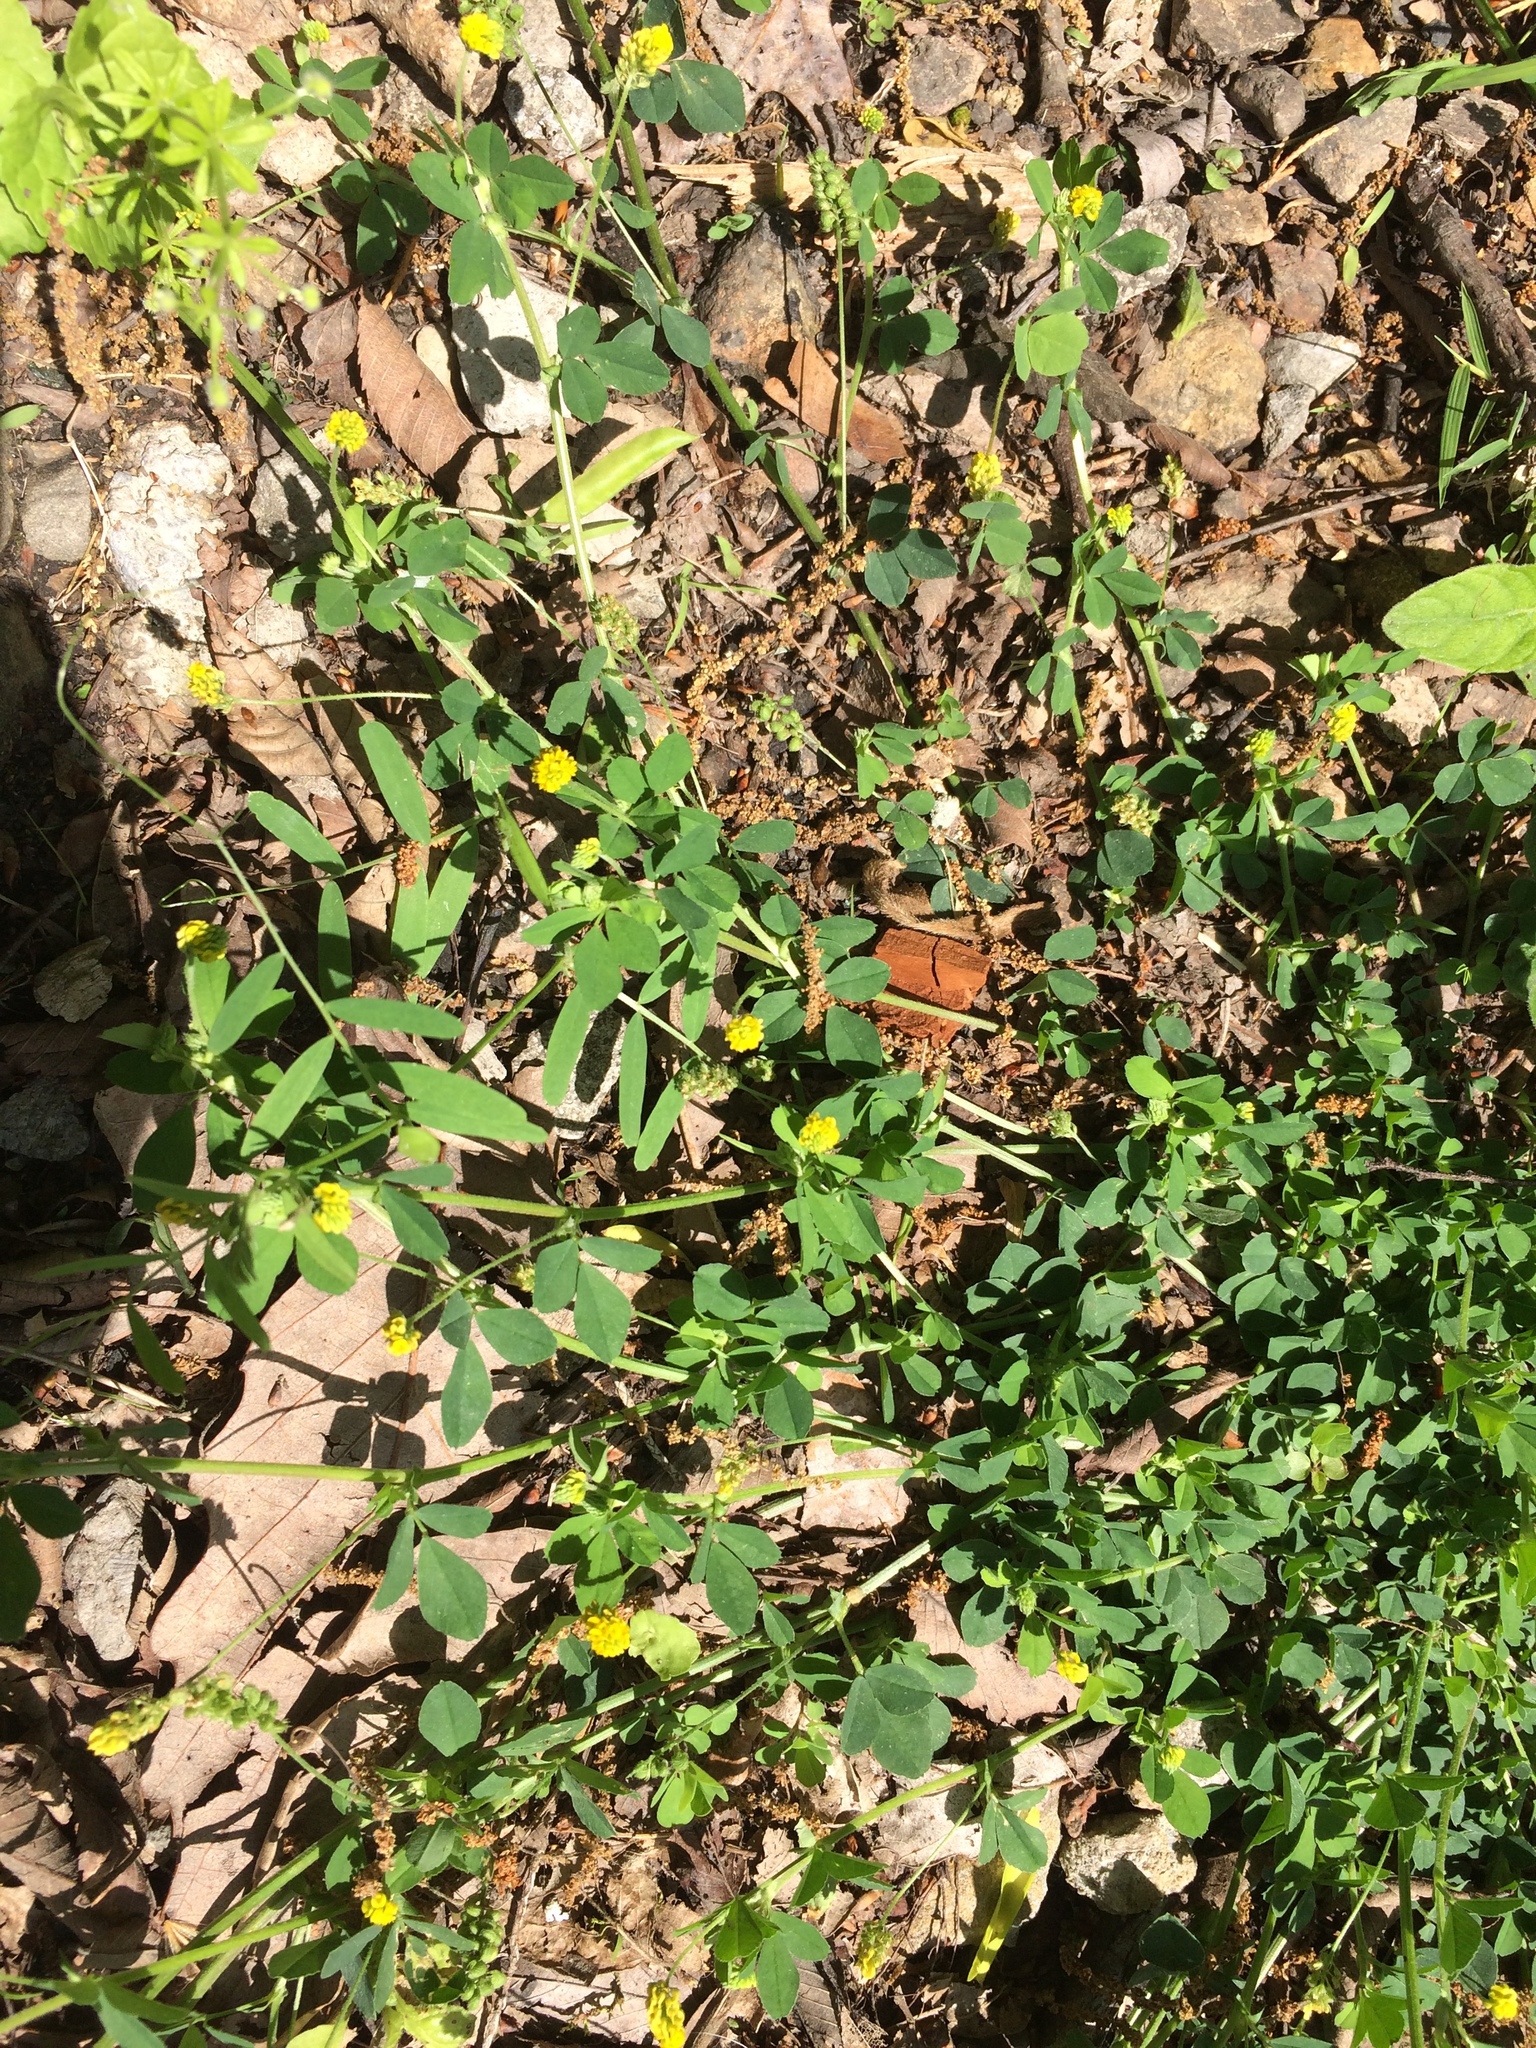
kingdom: Plantae
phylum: Tracheophyta
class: Magnoliopsida
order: Fabales
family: Fabaceae
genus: Medicago
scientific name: Medicago lupulina
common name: Black medick
